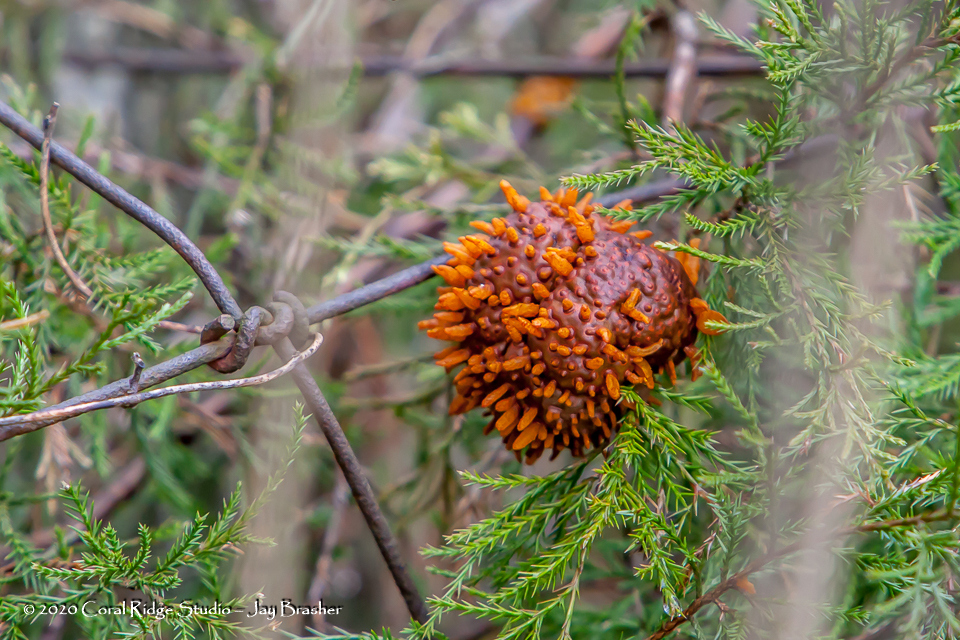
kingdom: Fungi
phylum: Basidiomycota
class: Pucciniomycetes
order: Pucciniales
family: Gymnosporangiaceae
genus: Gymnosporangium
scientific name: Gymnosporangium juniperi-virginianae
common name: Juniper-apple rust
